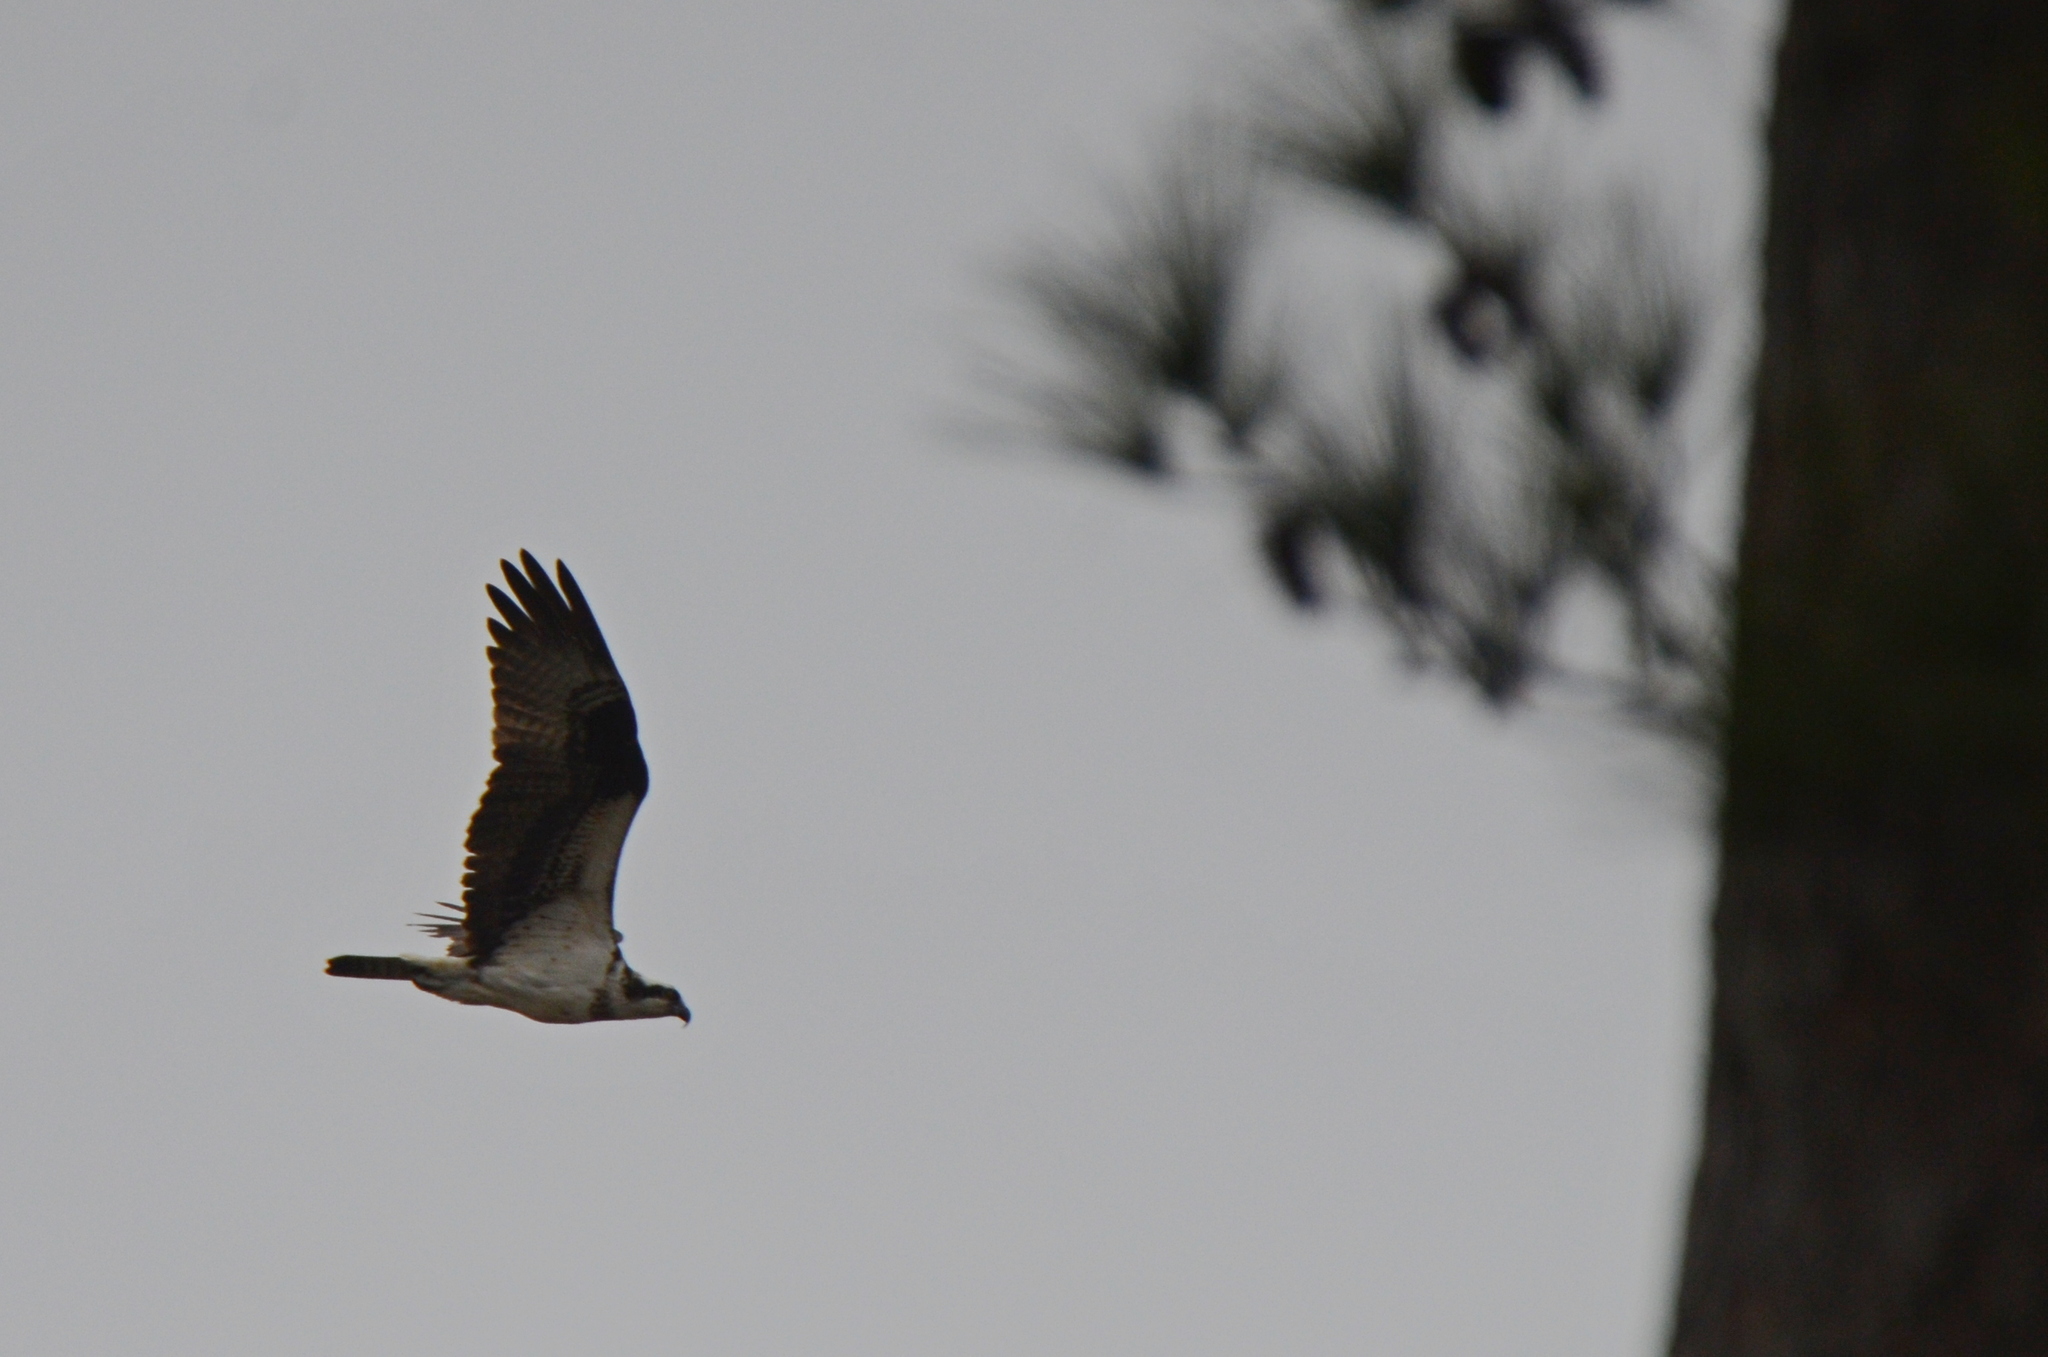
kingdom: Animalia
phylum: Chordata
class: Aves
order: Accipitriformes
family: Pandionidae
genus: Pandion
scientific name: Pandion haliaetus
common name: Osprey
